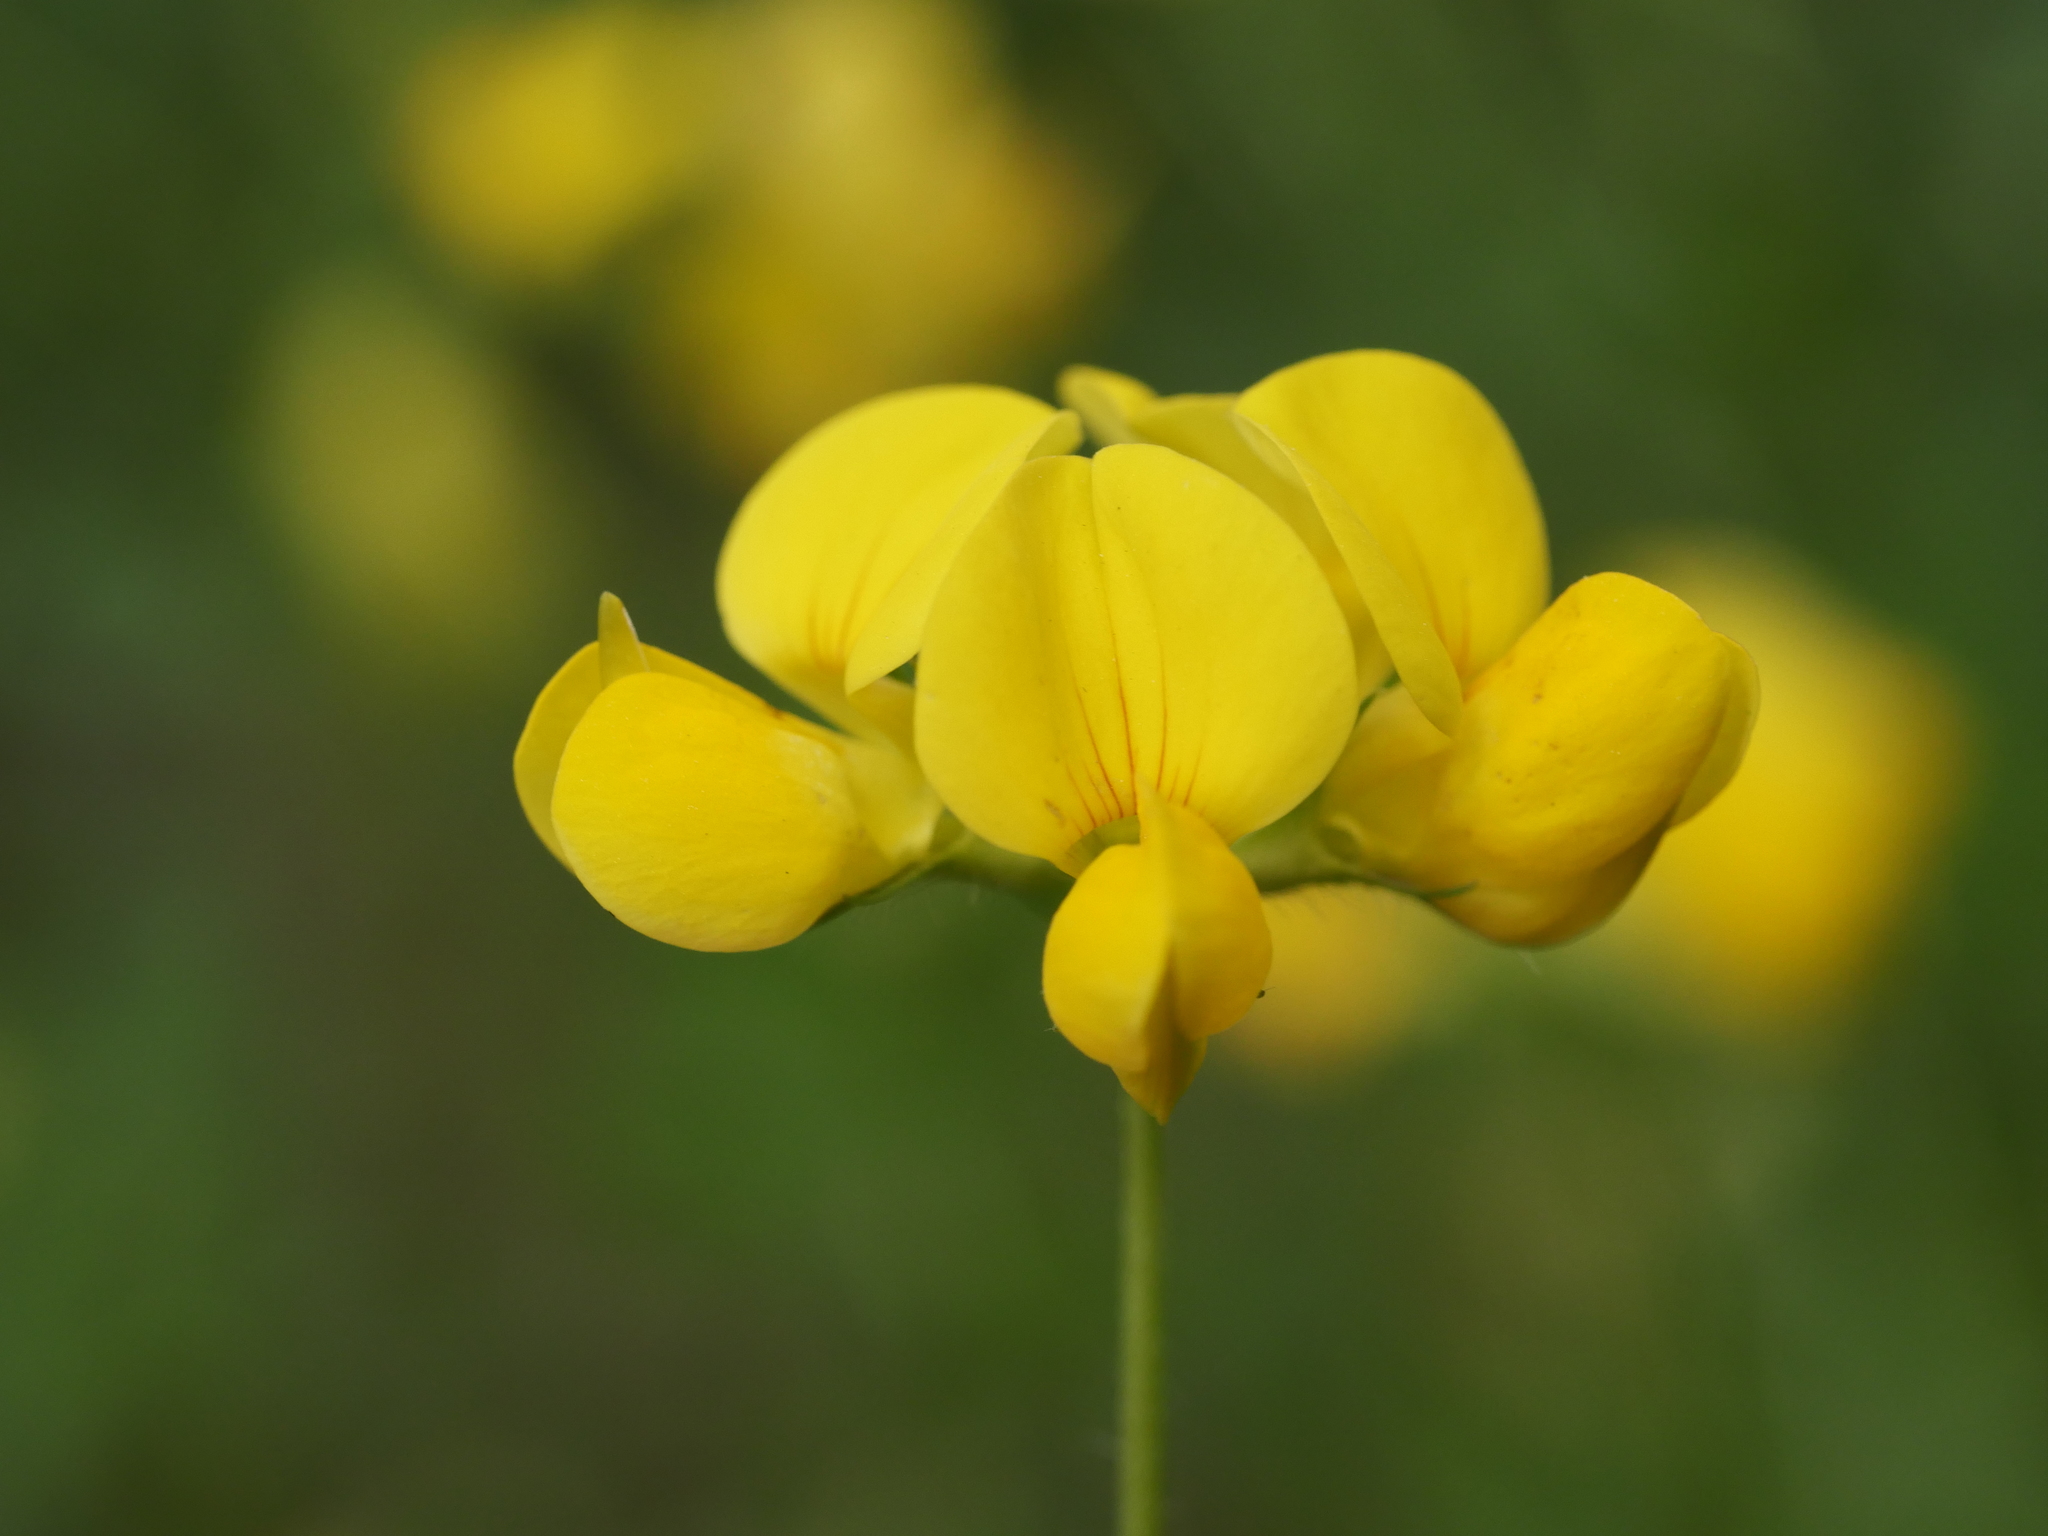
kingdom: Plantae
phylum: Tracheophyta
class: Magnoliopsida
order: Fabales
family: Fabaceae
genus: Lotus
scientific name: Lotus corniculatus
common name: Common bird's-foot-trefoil
